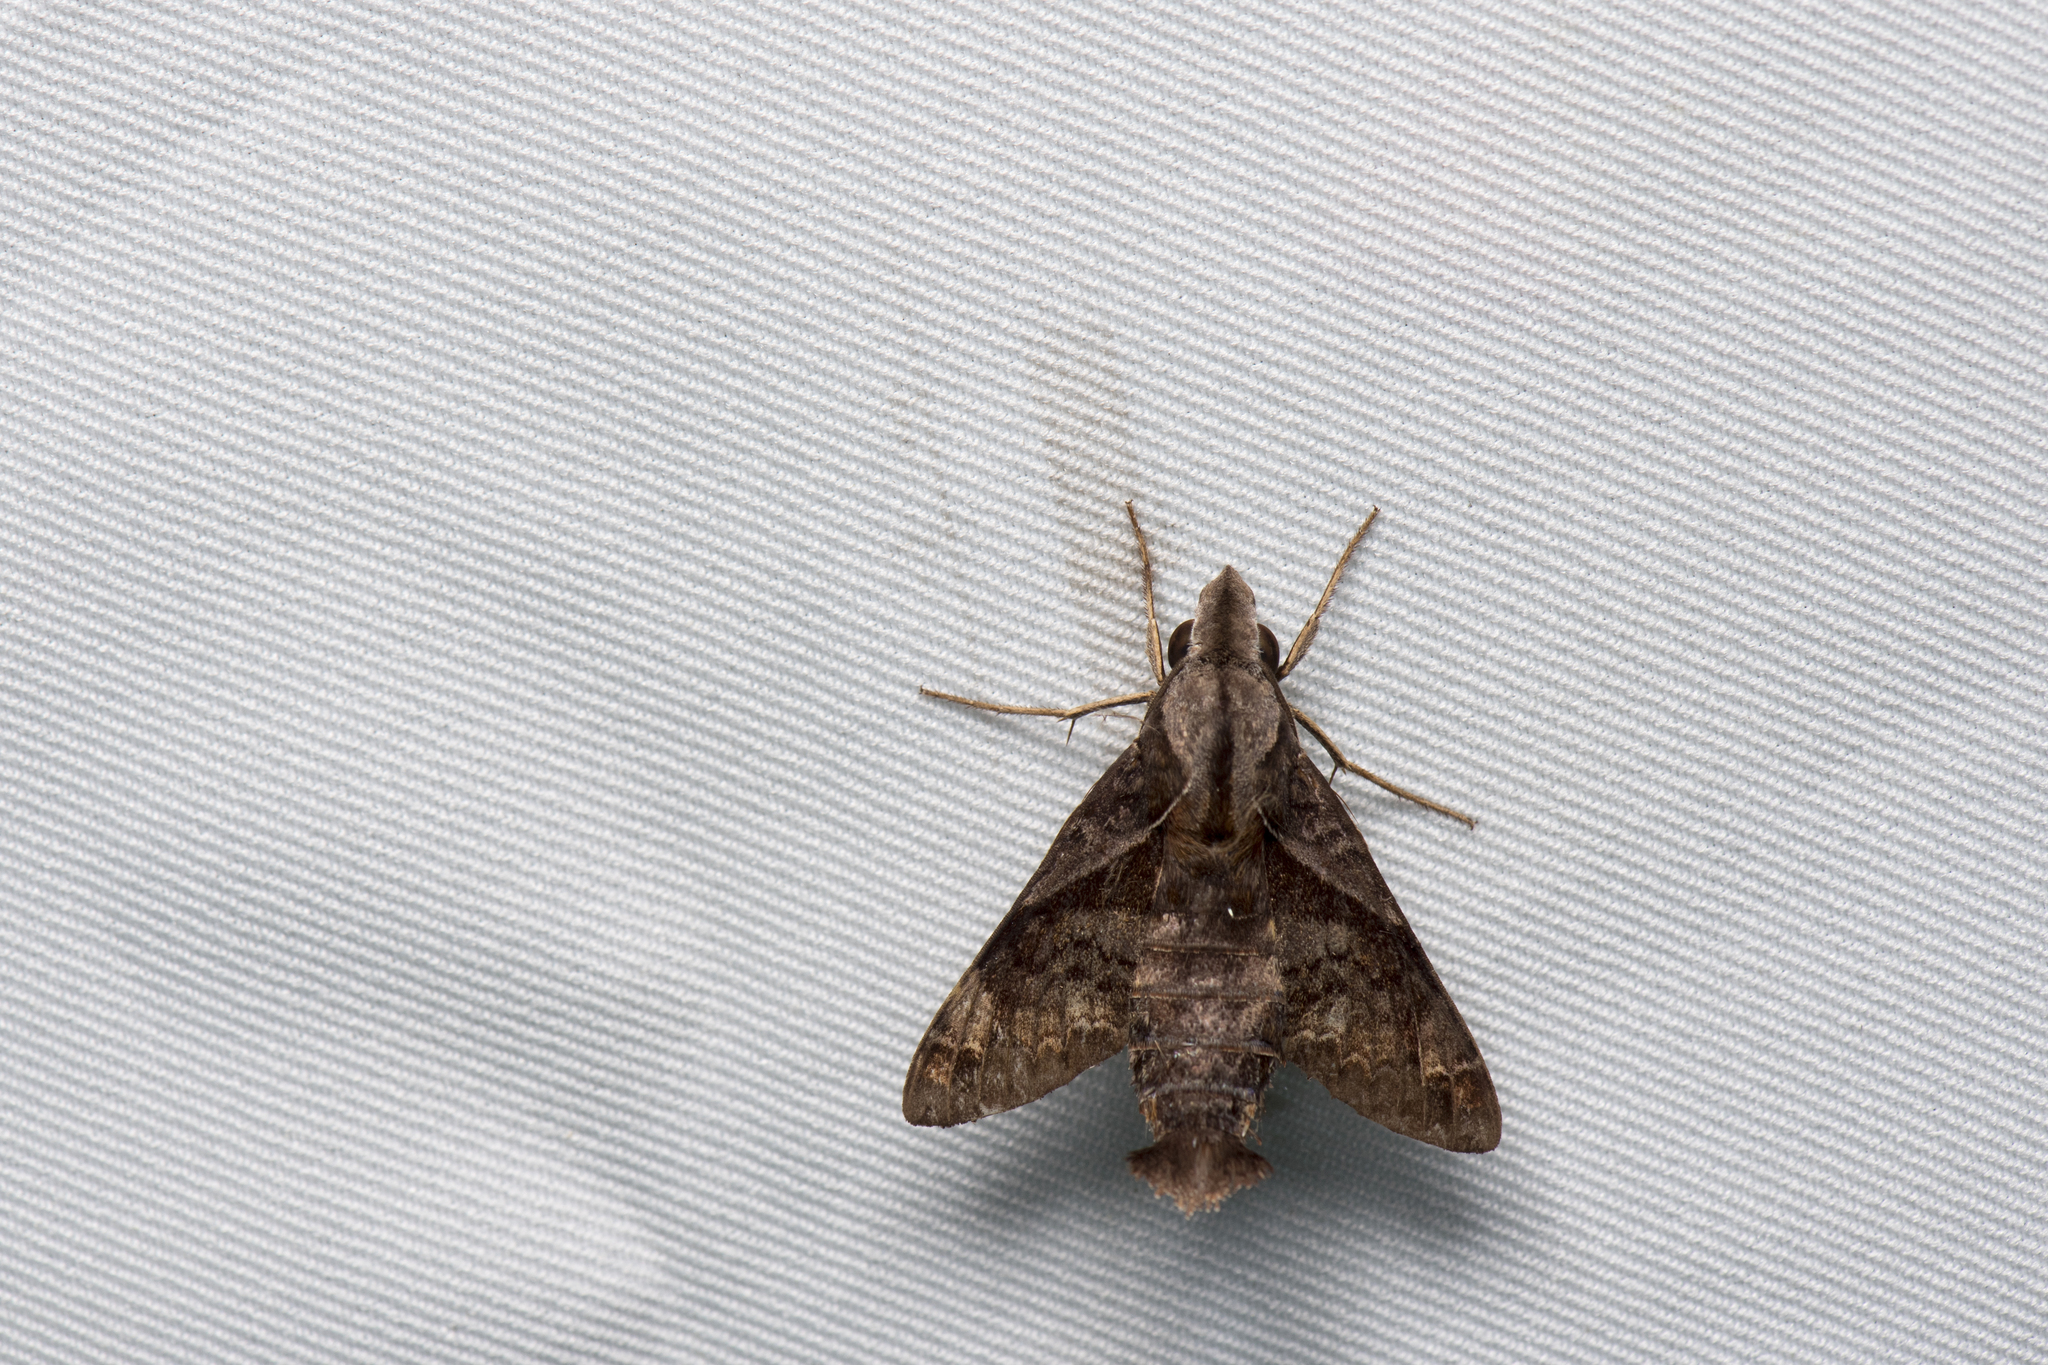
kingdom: Animalia
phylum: Arthropoda
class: Insecta
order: Lepidoptera
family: Sphingidae
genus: Macroglossum
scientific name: Macroglossum fritzei
